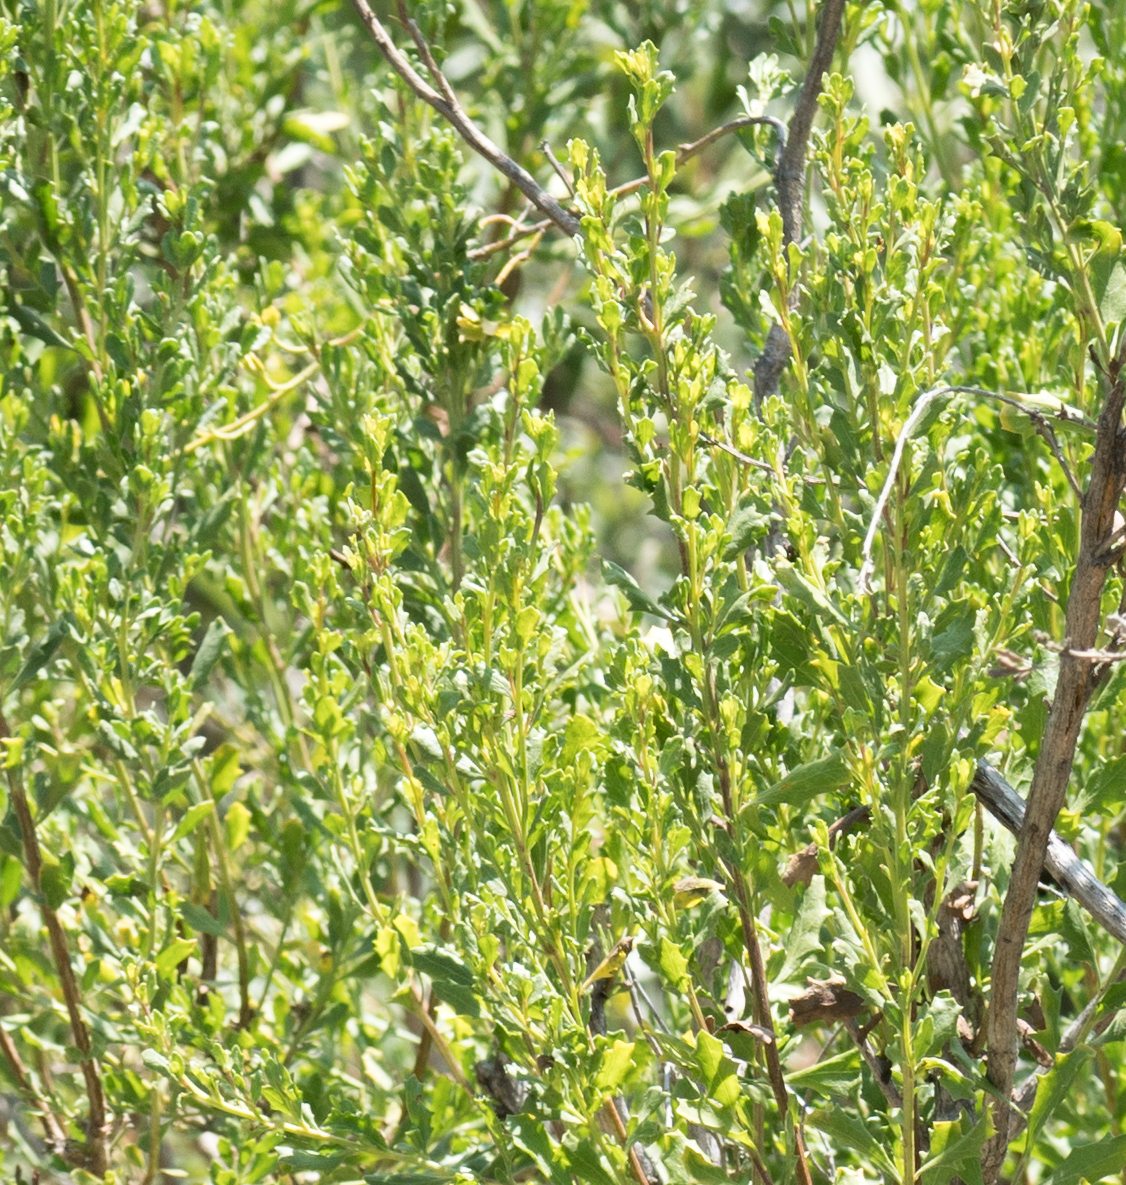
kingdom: Plantae
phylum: Tracheophyta
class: Magnoliopsida
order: Asterales
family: Asteraceae
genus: Baccharis
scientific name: Baccharis pilularis
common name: Coyotebrush
